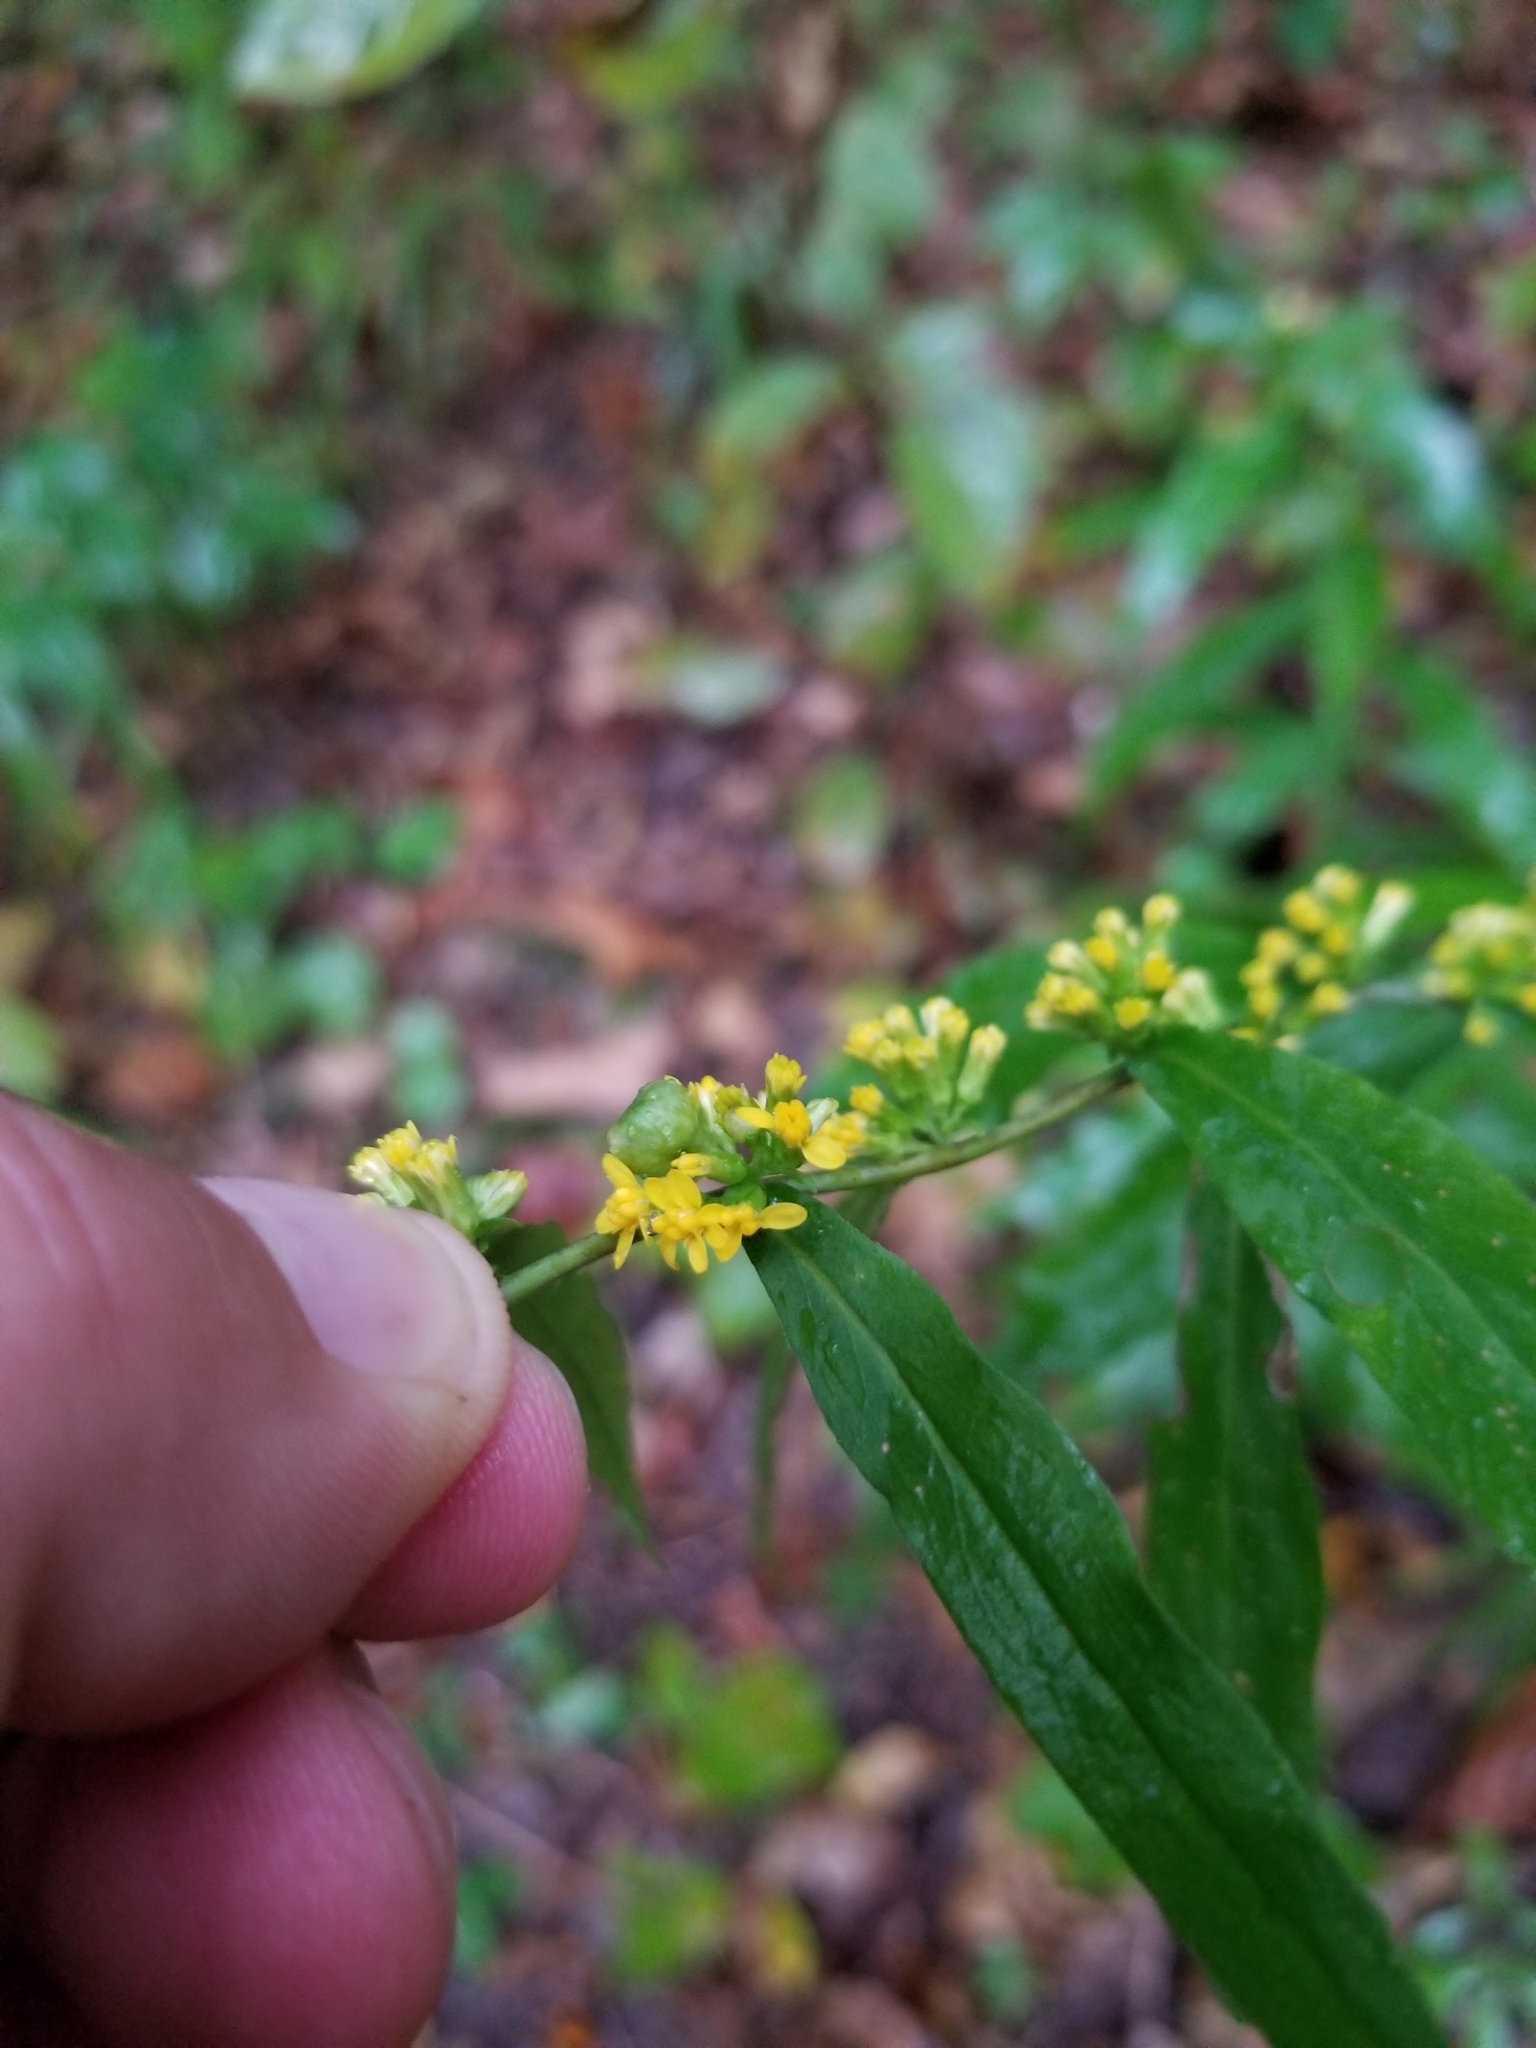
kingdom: Plantae
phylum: Tracheophyta
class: Magnoliopsida
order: Asterales
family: Asteraceae
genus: Solidago
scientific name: Solidago caesia
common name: Woodland goldenrod
